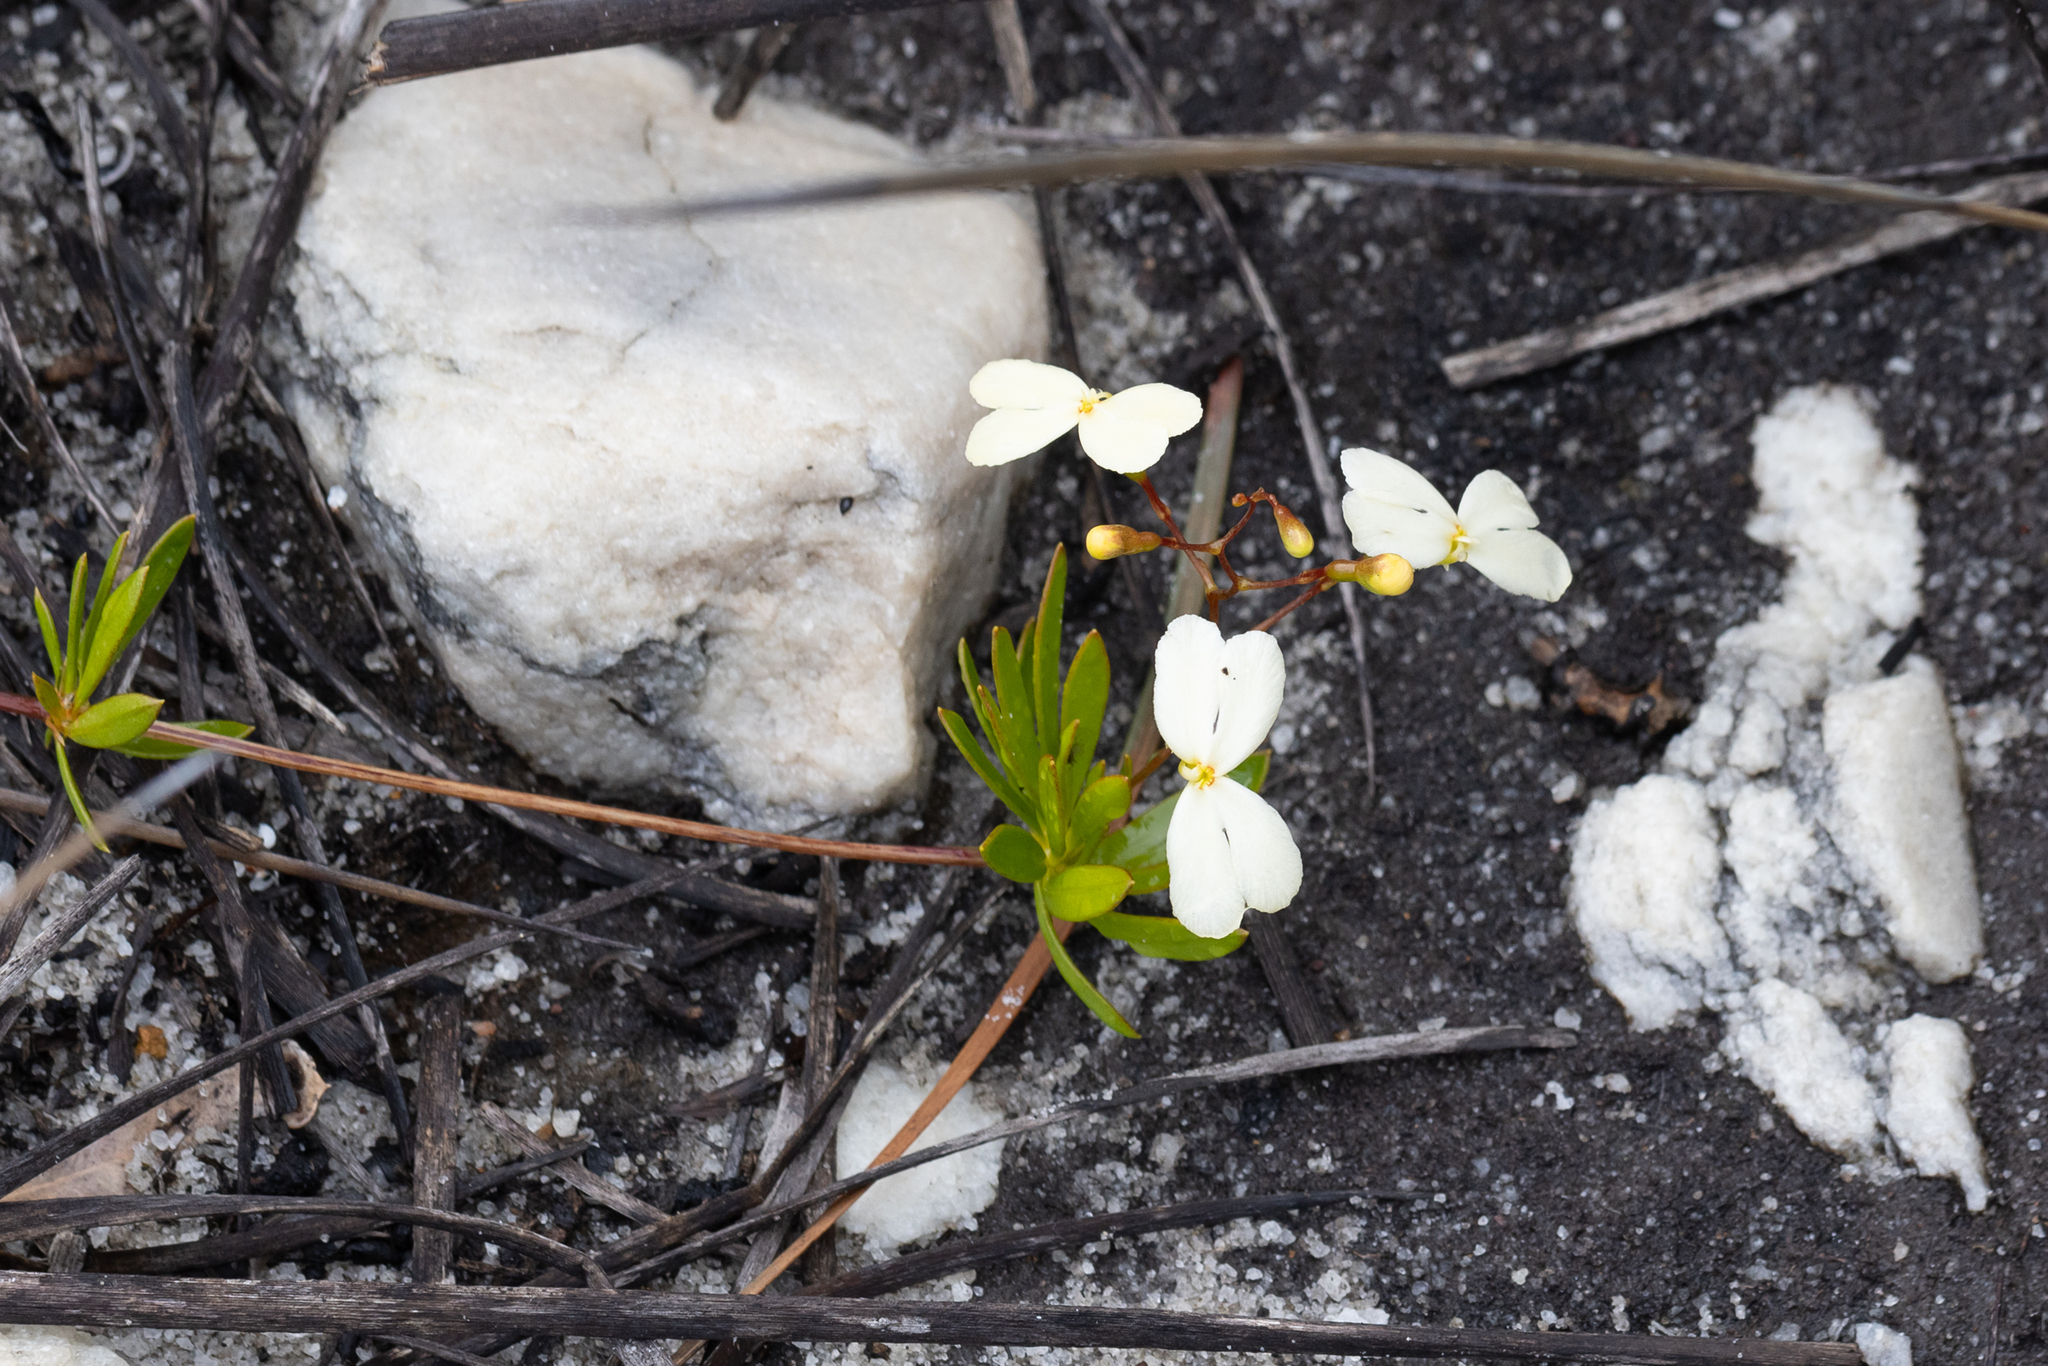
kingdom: Plantae
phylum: Tracheophyta
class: Magnoliopsida
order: Asterales
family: Stylidiaceae
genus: Stylidium
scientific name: Stylidium galioides
